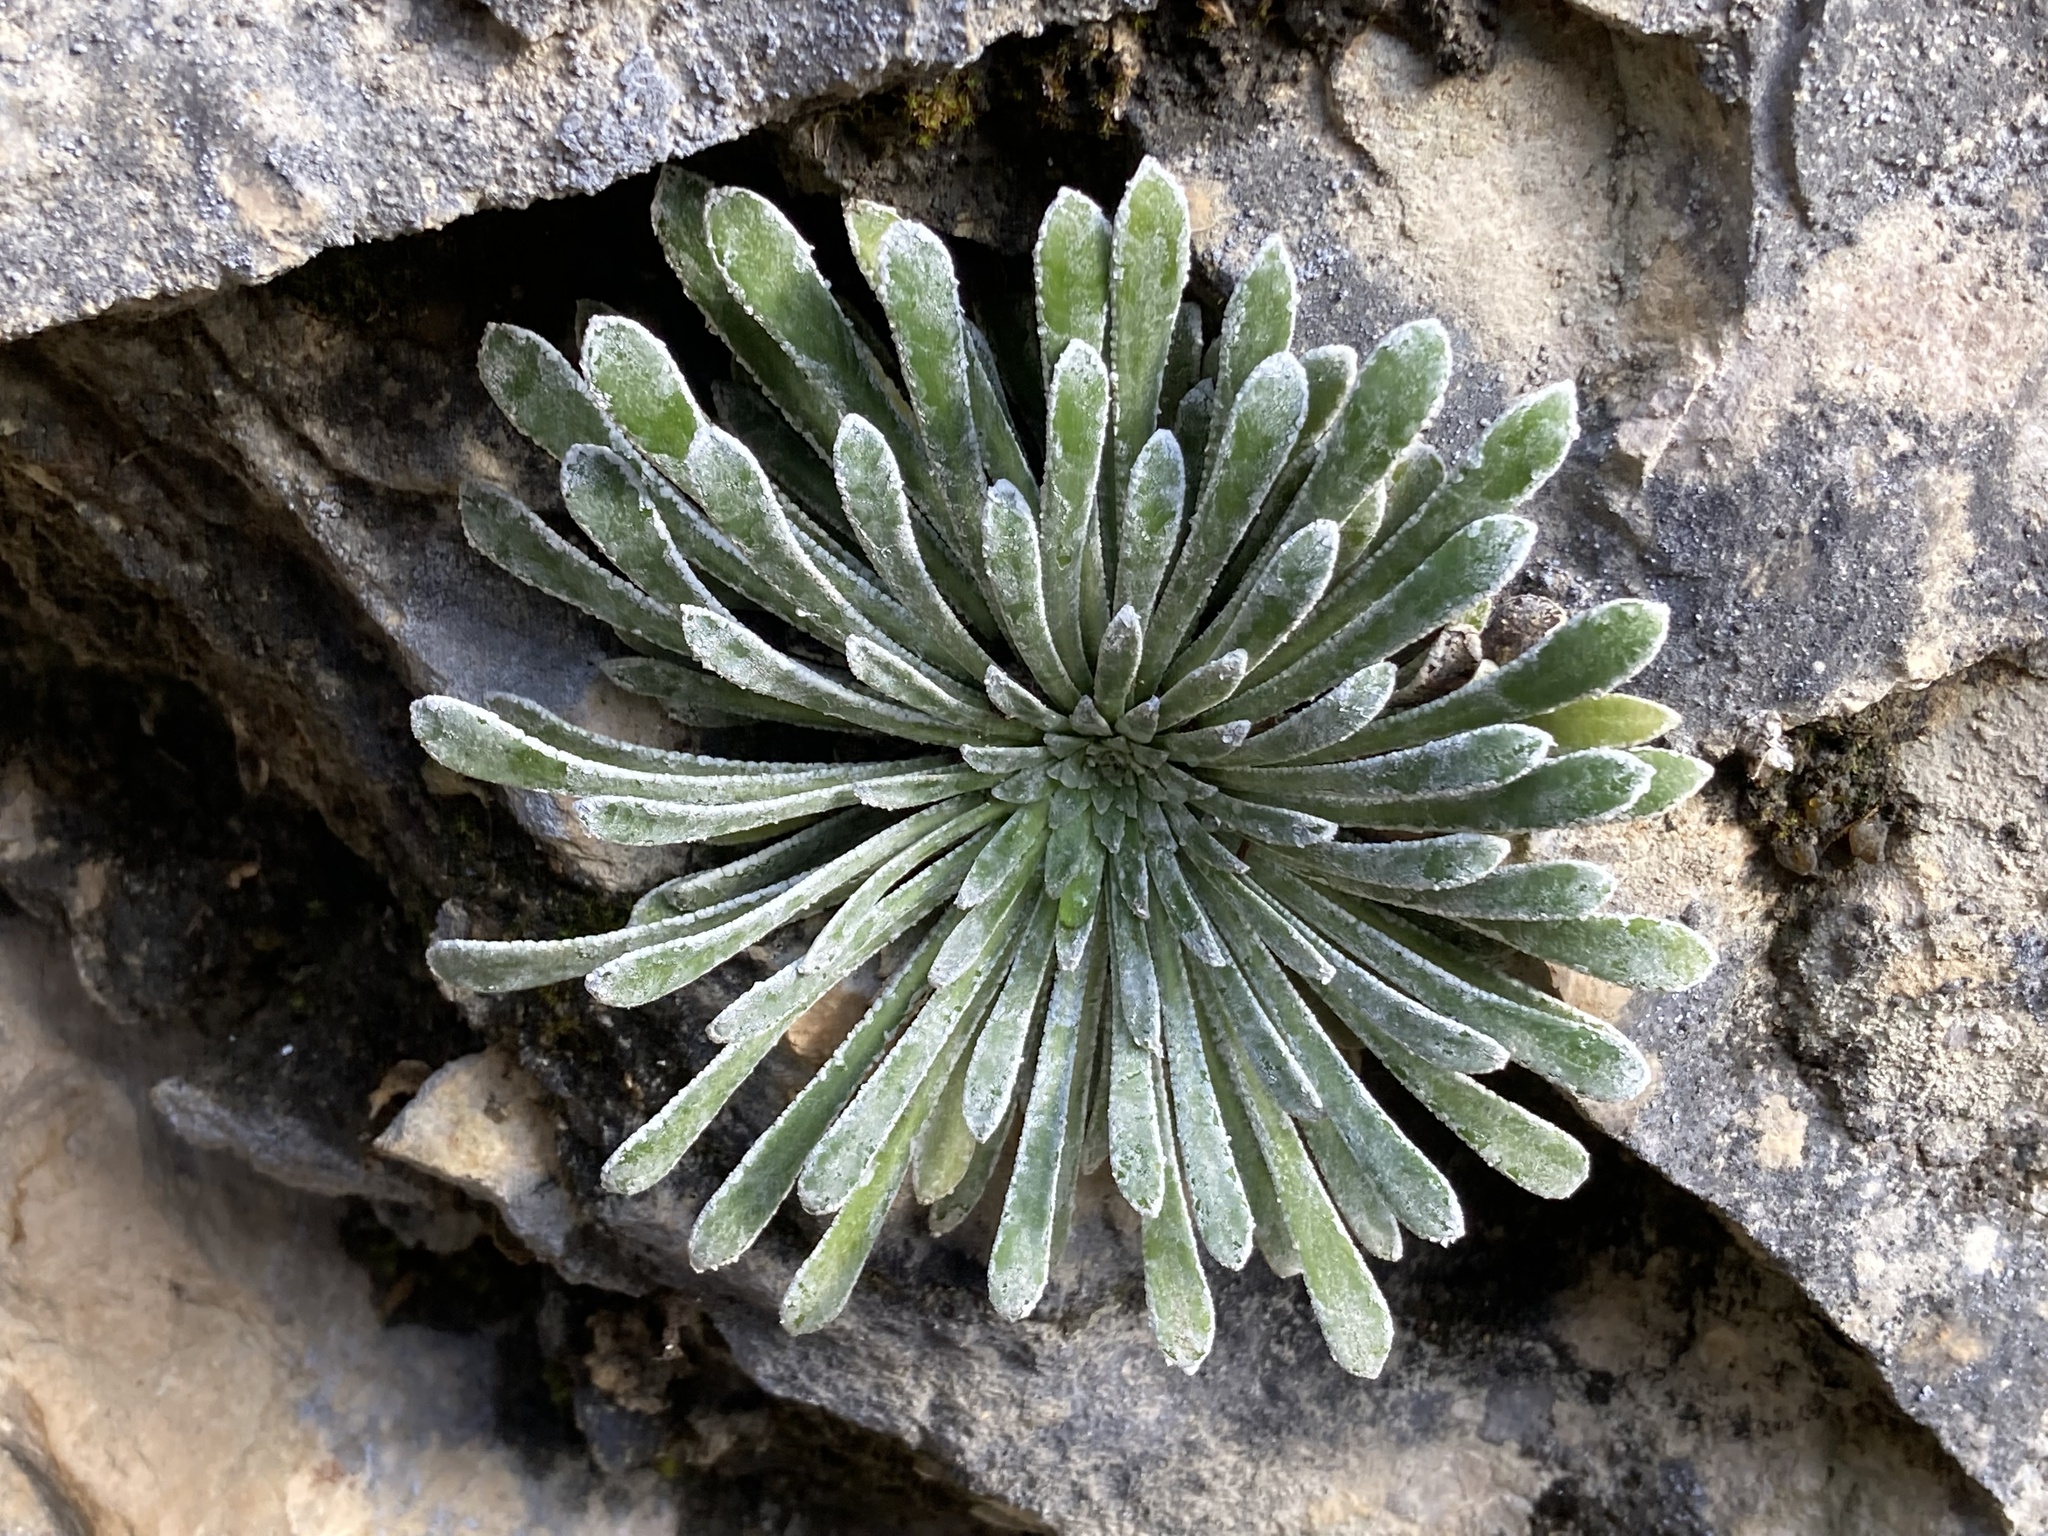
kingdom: Plantae
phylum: Tracheophyta
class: Magnoliopsida
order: Saxifragales
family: Saxifragaceae
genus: Saxifraga
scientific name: Saxifraga longifolia
